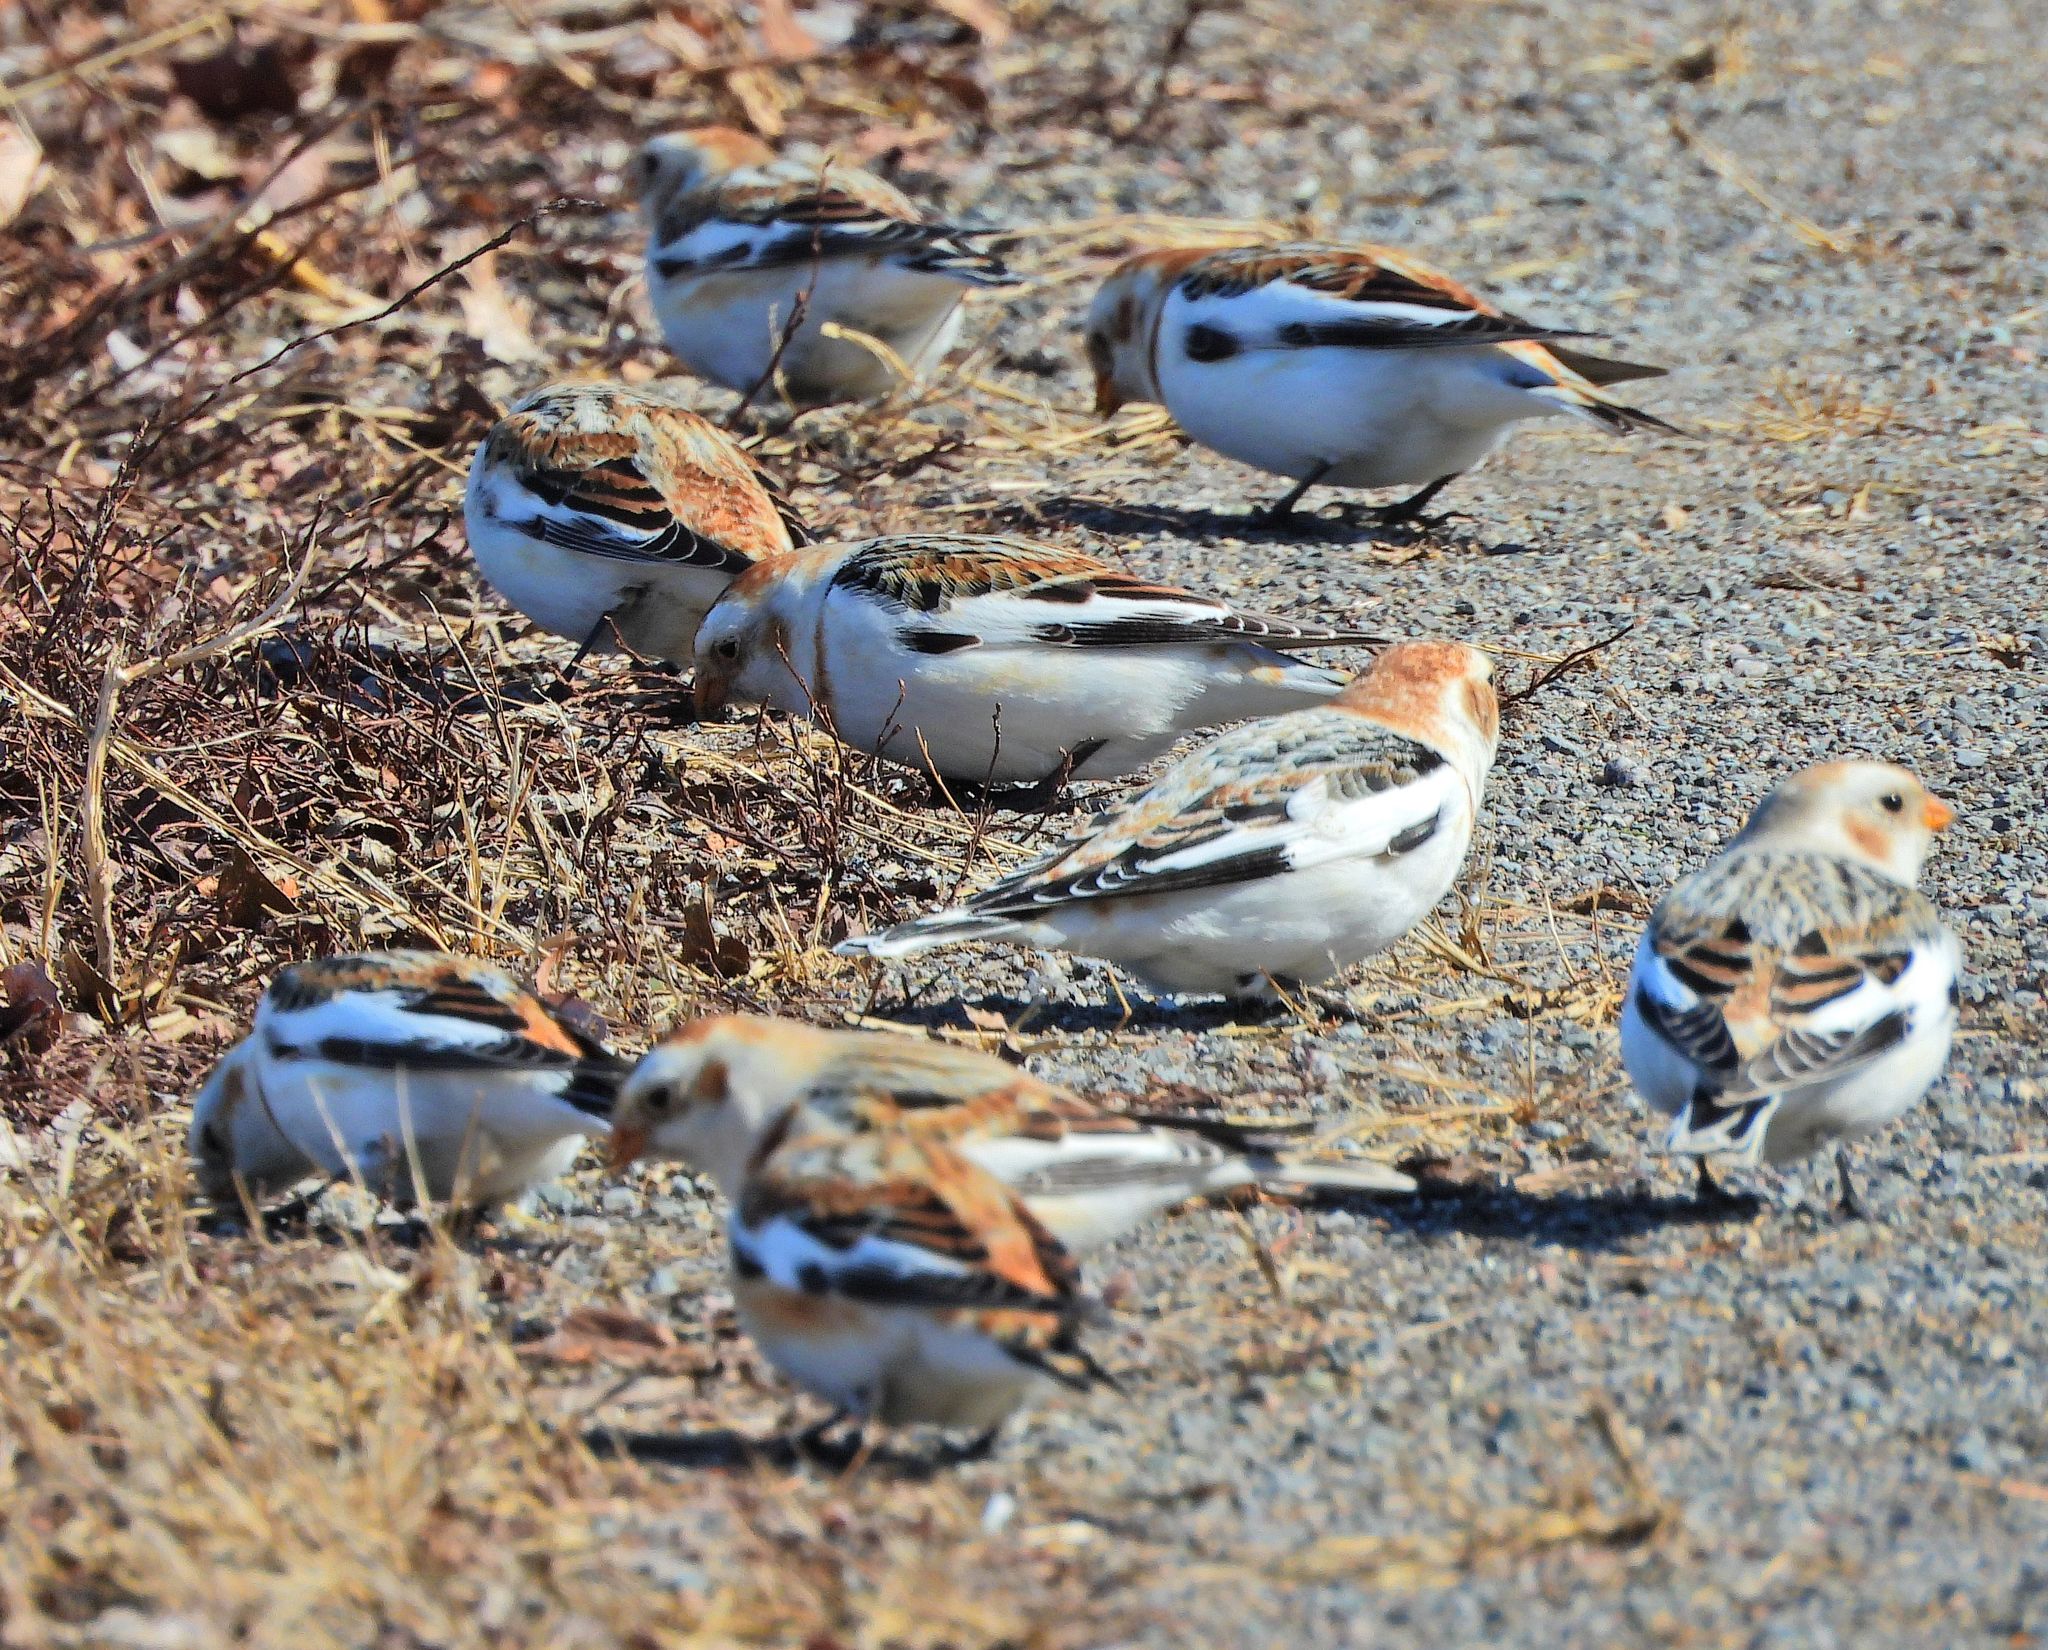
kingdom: Animalia
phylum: Chordata
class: Aves
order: Passeriformes
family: Calcariidae
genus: Plectrophenax
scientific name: Plectrophenax nivalis
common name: Snow bunting
